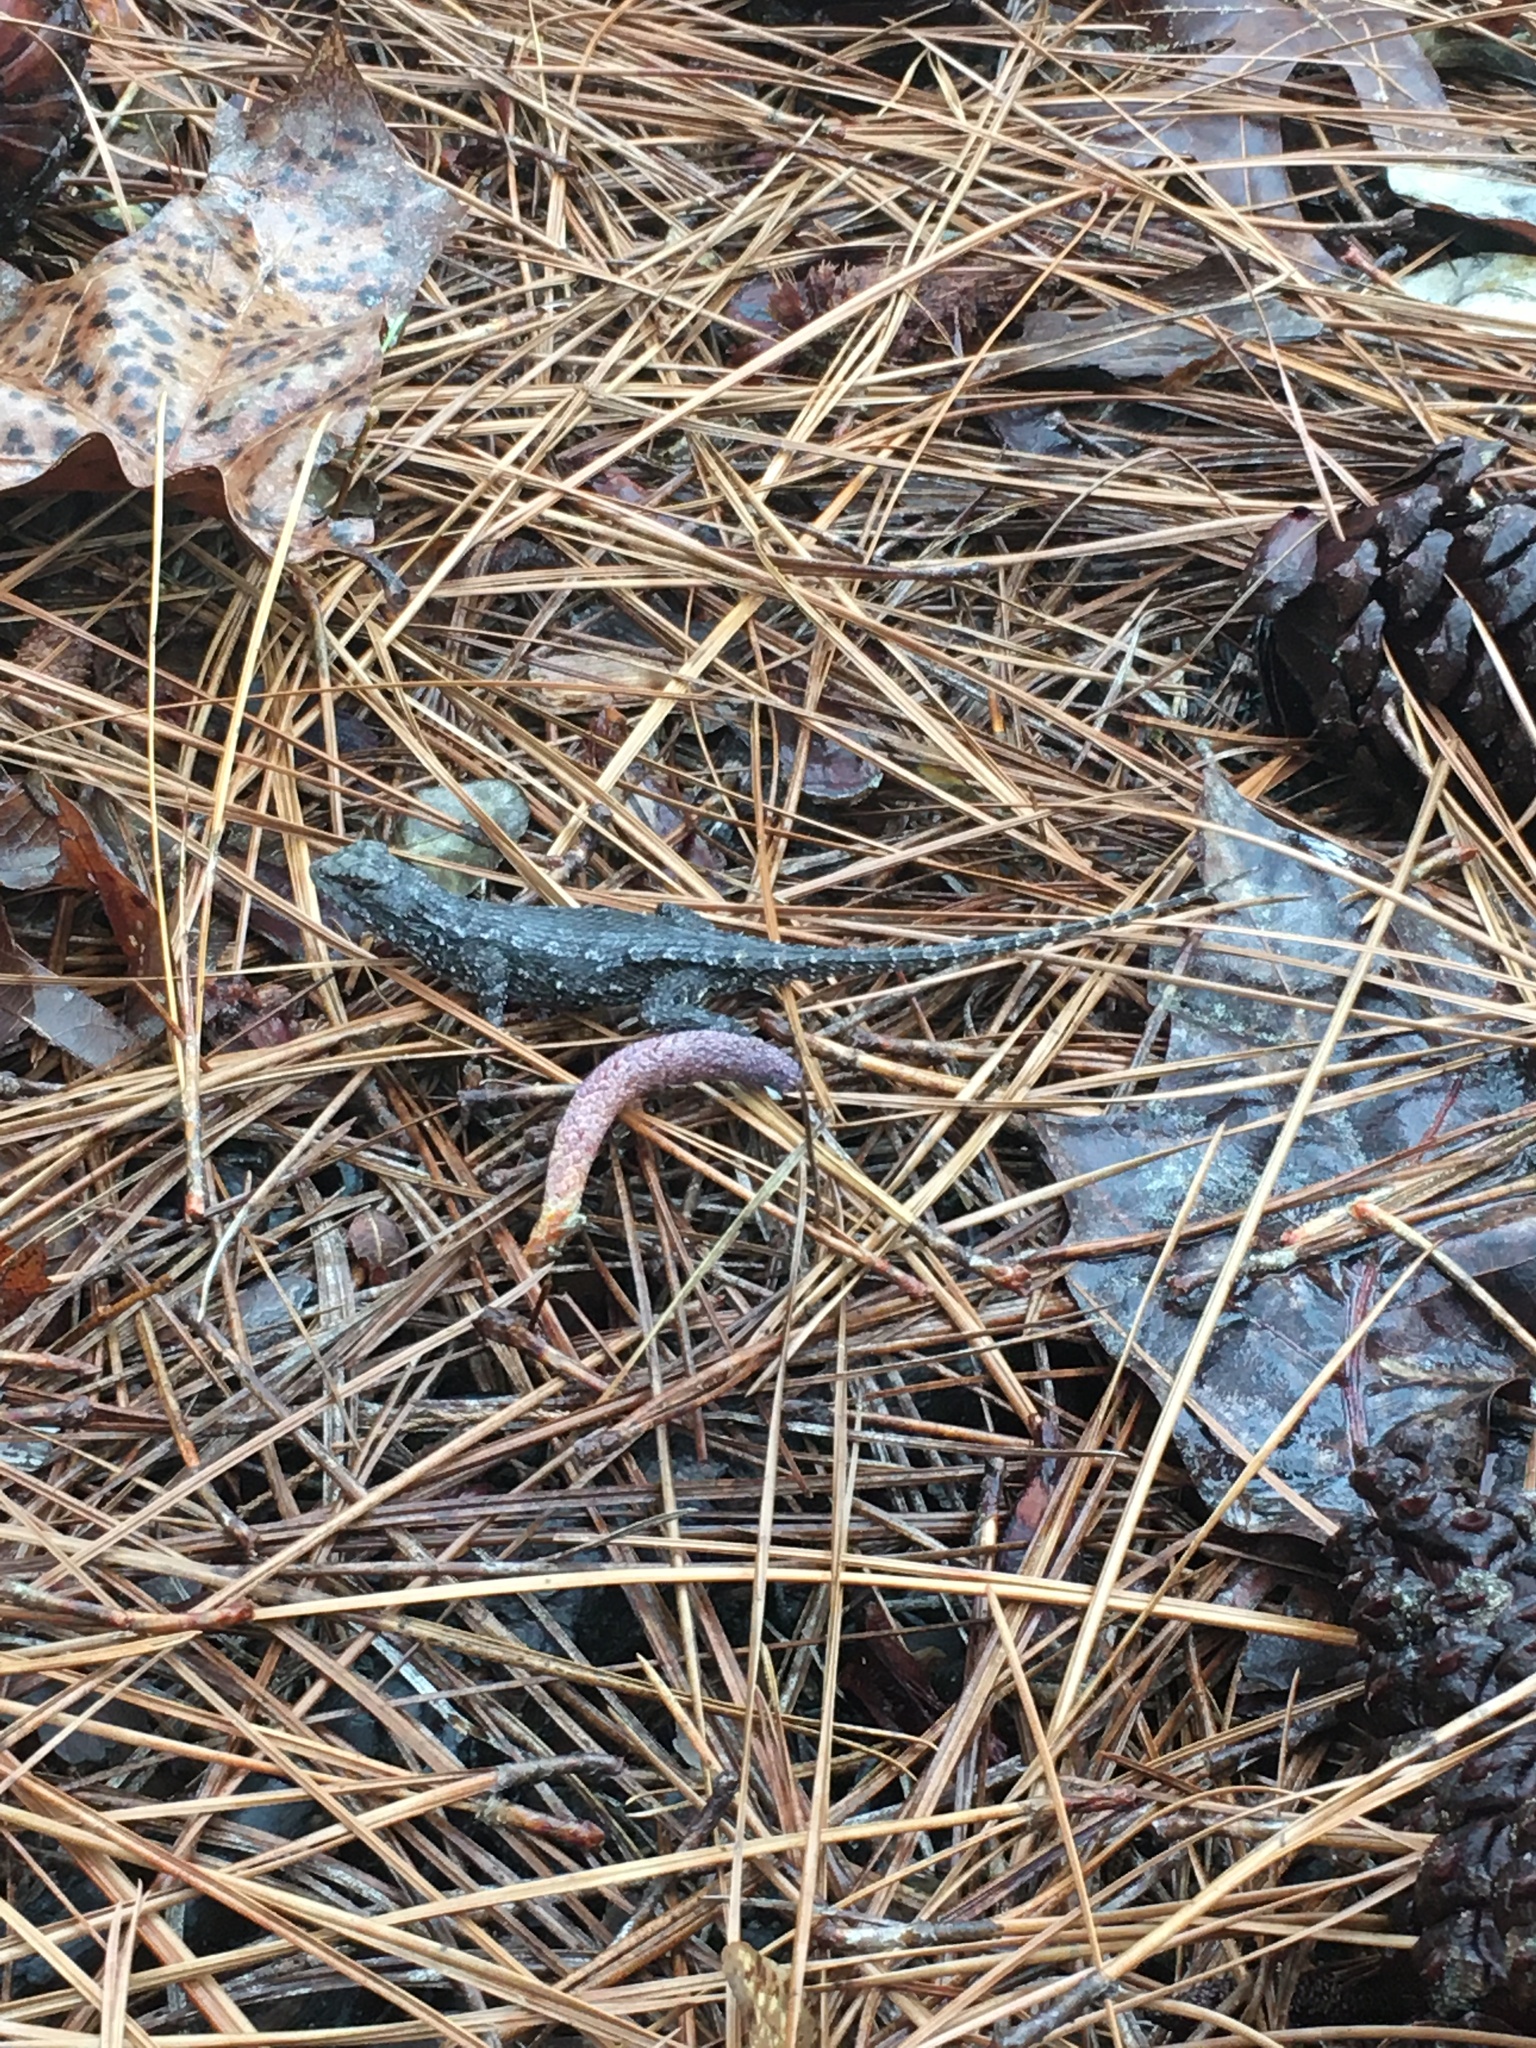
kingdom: Animalia
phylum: Chordata
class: Squamata
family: Phrynosomatidae
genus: Sceloporus
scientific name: Sceloporus undulatus
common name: Eastern fence lizard
